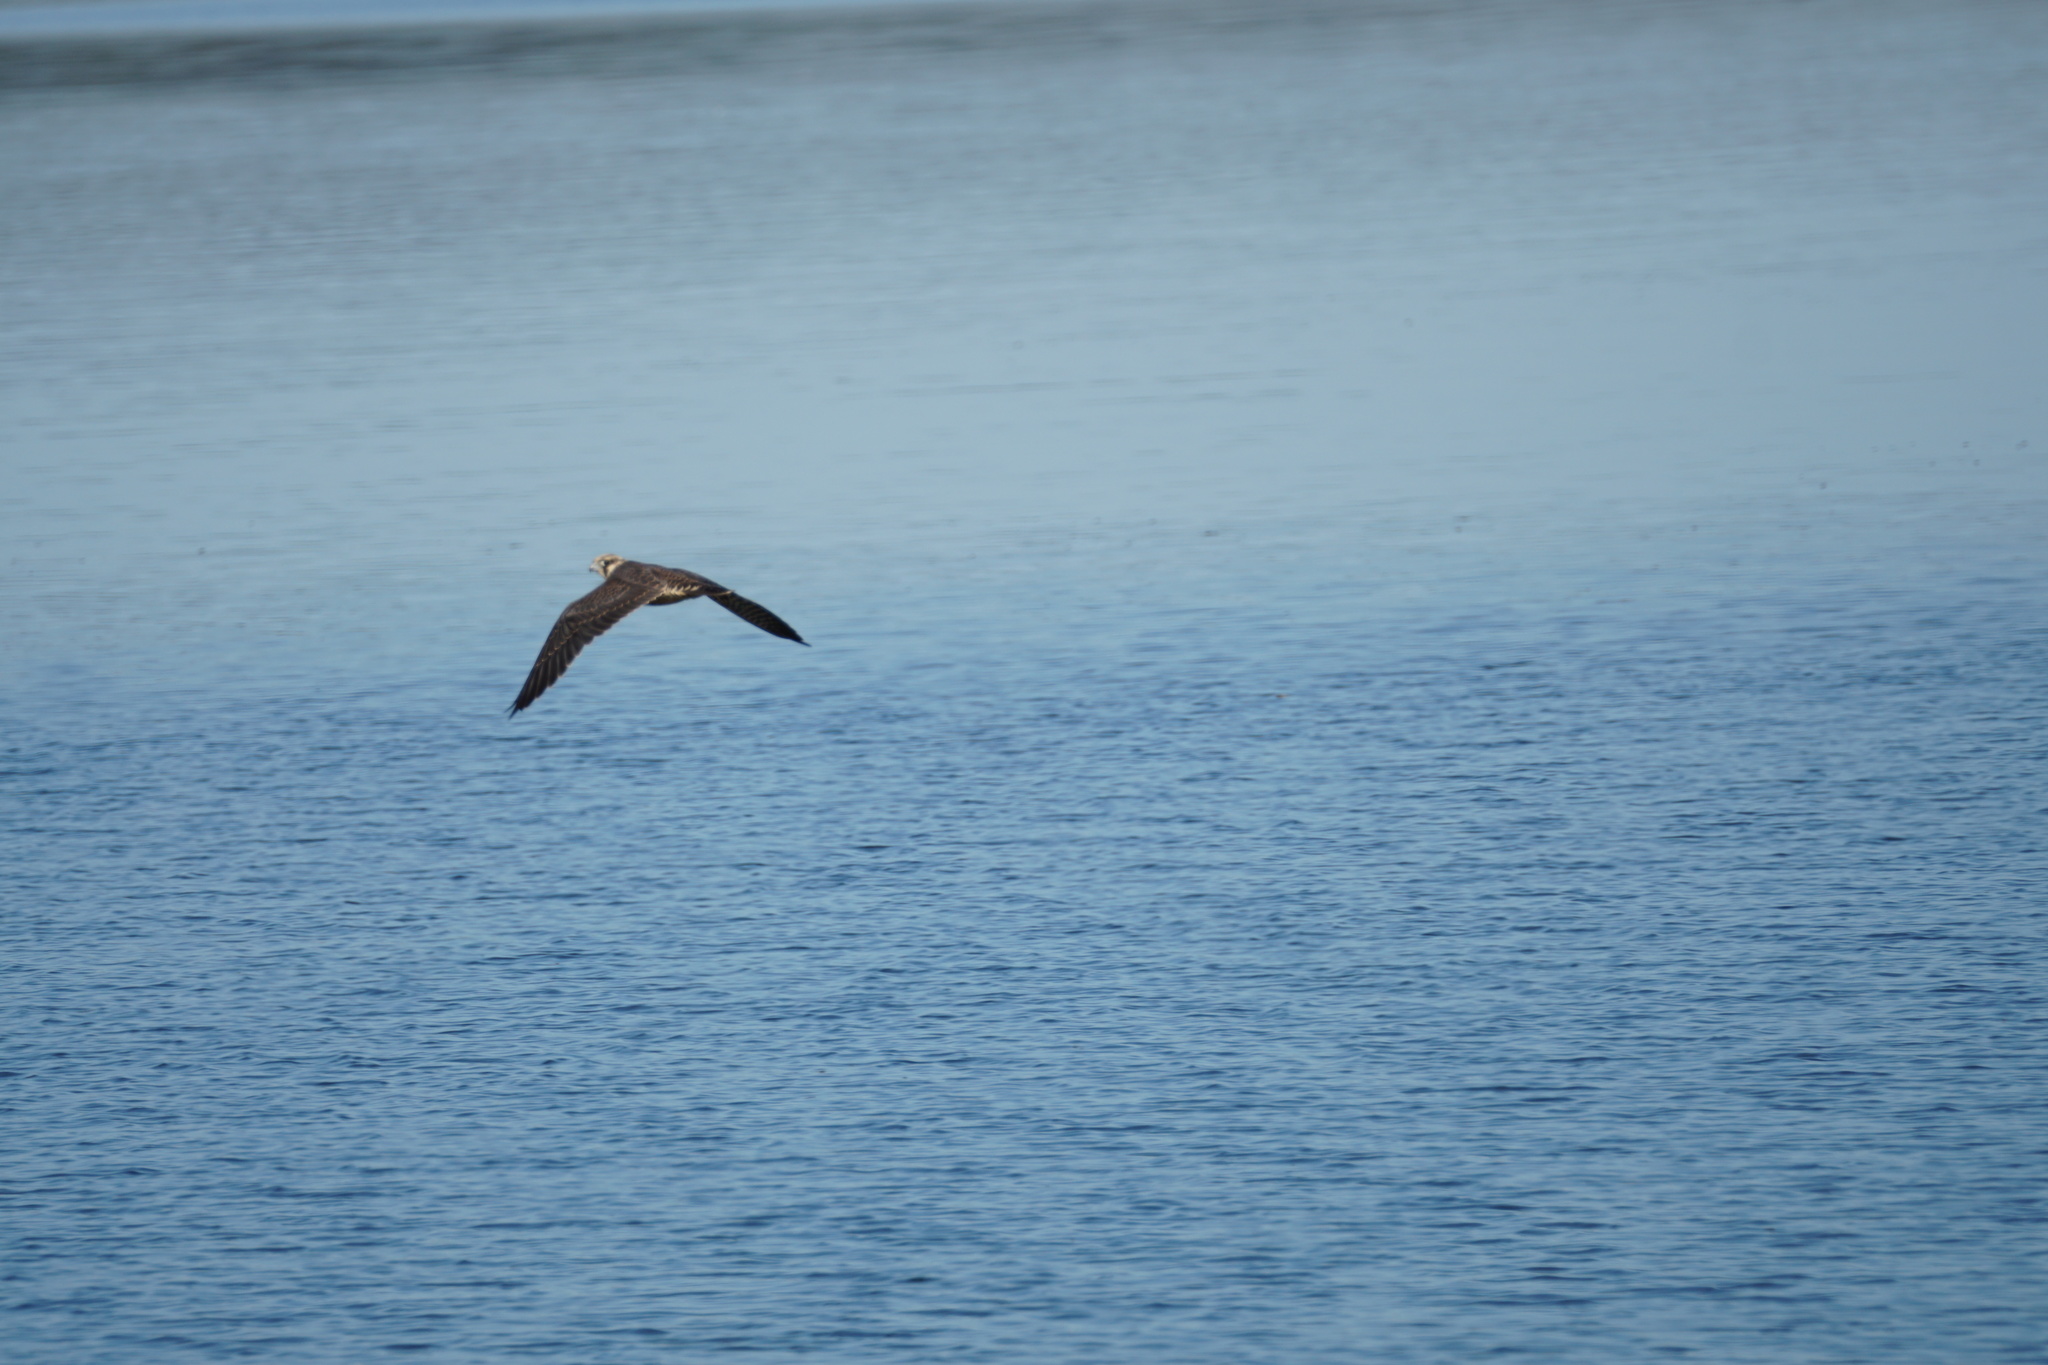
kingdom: Animalia
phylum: Chordata
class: Aves
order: Falconiformes
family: Falconidae
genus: Falco
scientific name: Falco peregrinus
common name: Peregrine falcon
